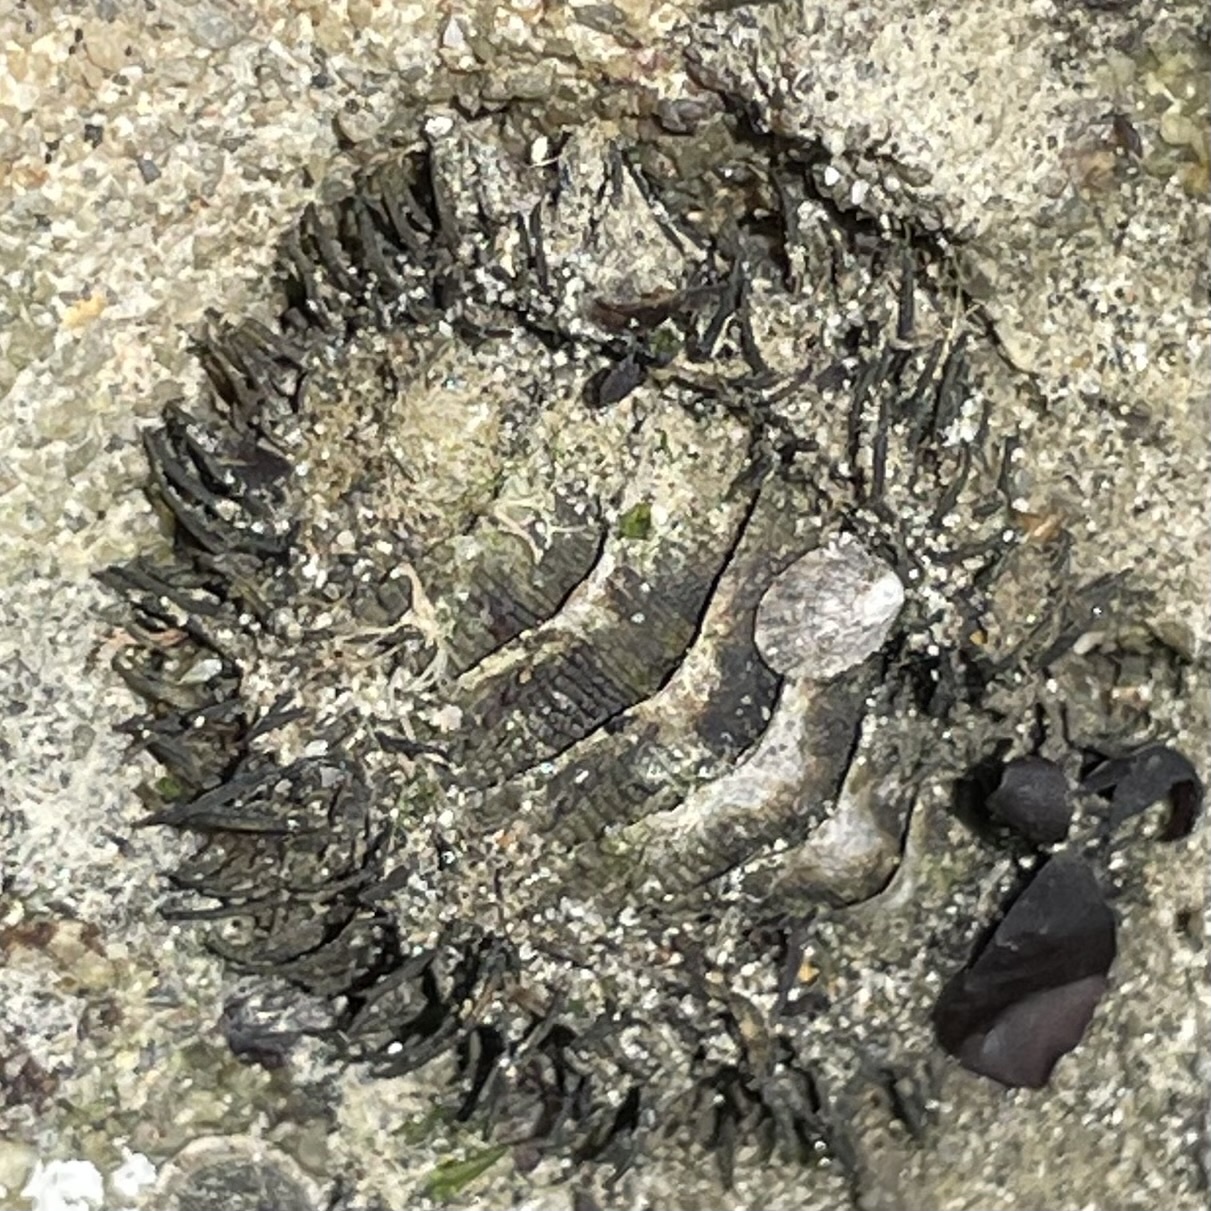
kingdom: Animalia
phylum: Mollusca
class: Polyplacophora
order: Chitonida
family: Mopaliidae
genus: Mopalia
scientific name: Mopalia muscosa
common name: Mossy chiton
